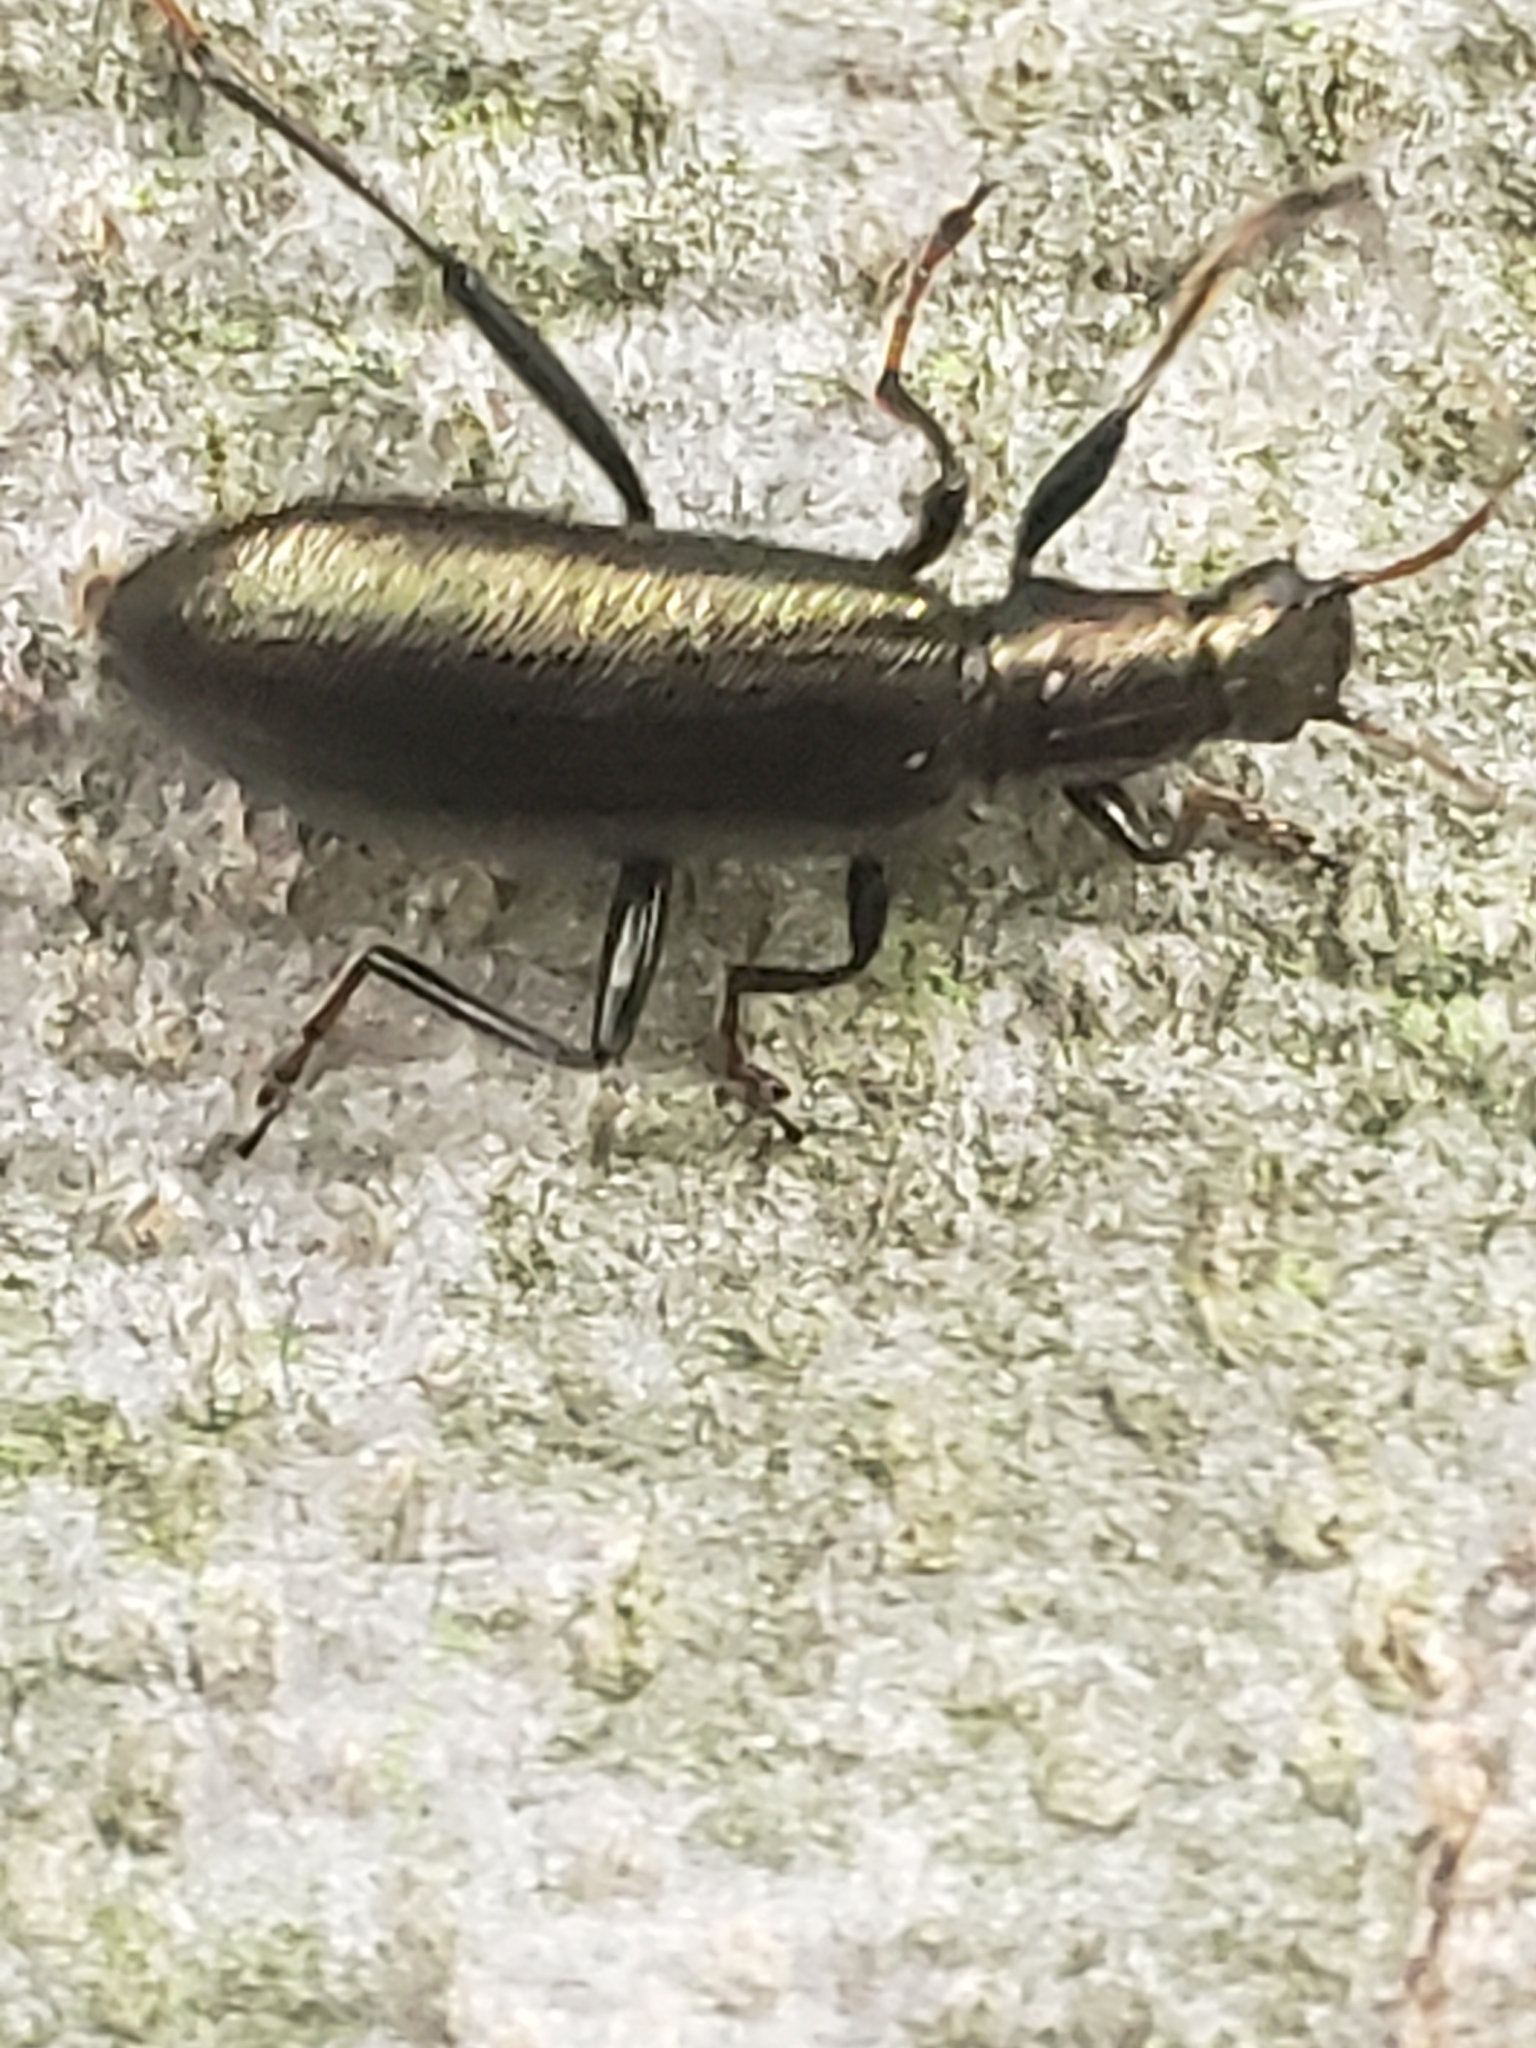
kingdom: Animalia
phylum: Arthropoda
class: Insecta
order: Coleoptera
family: Tenebrionidae
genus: Arthromacra
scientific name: Arthromacra aenea
